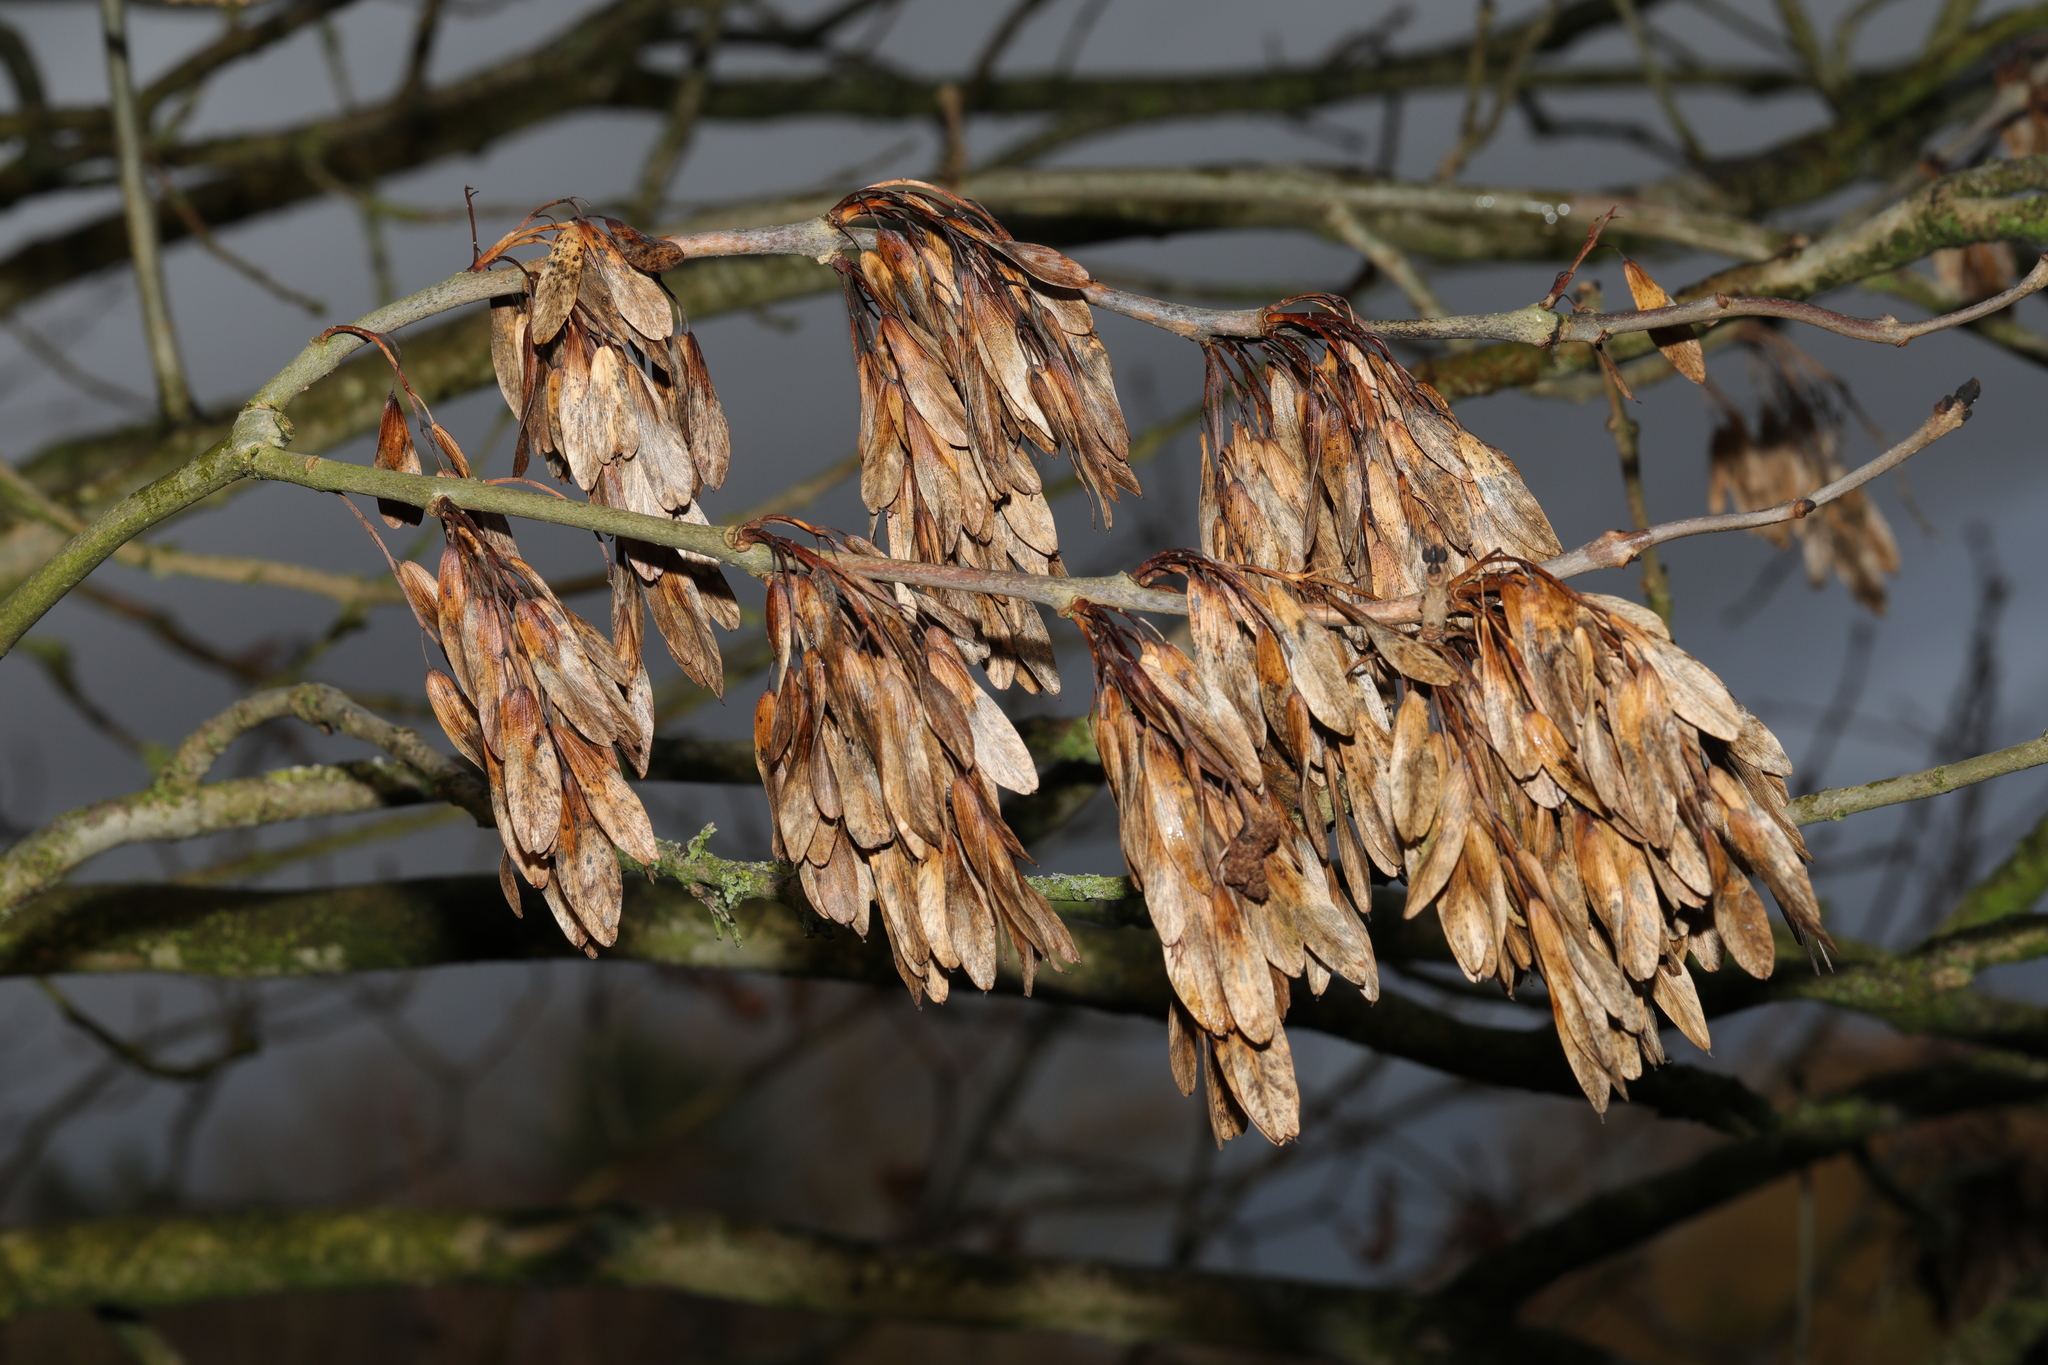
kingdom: Plantae
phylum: Tracheophyta
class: Magnoliopsida
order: Lamiales
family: Oleaceae
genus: Fraxinus
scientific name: Fraxinus excelsior
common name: European ash
